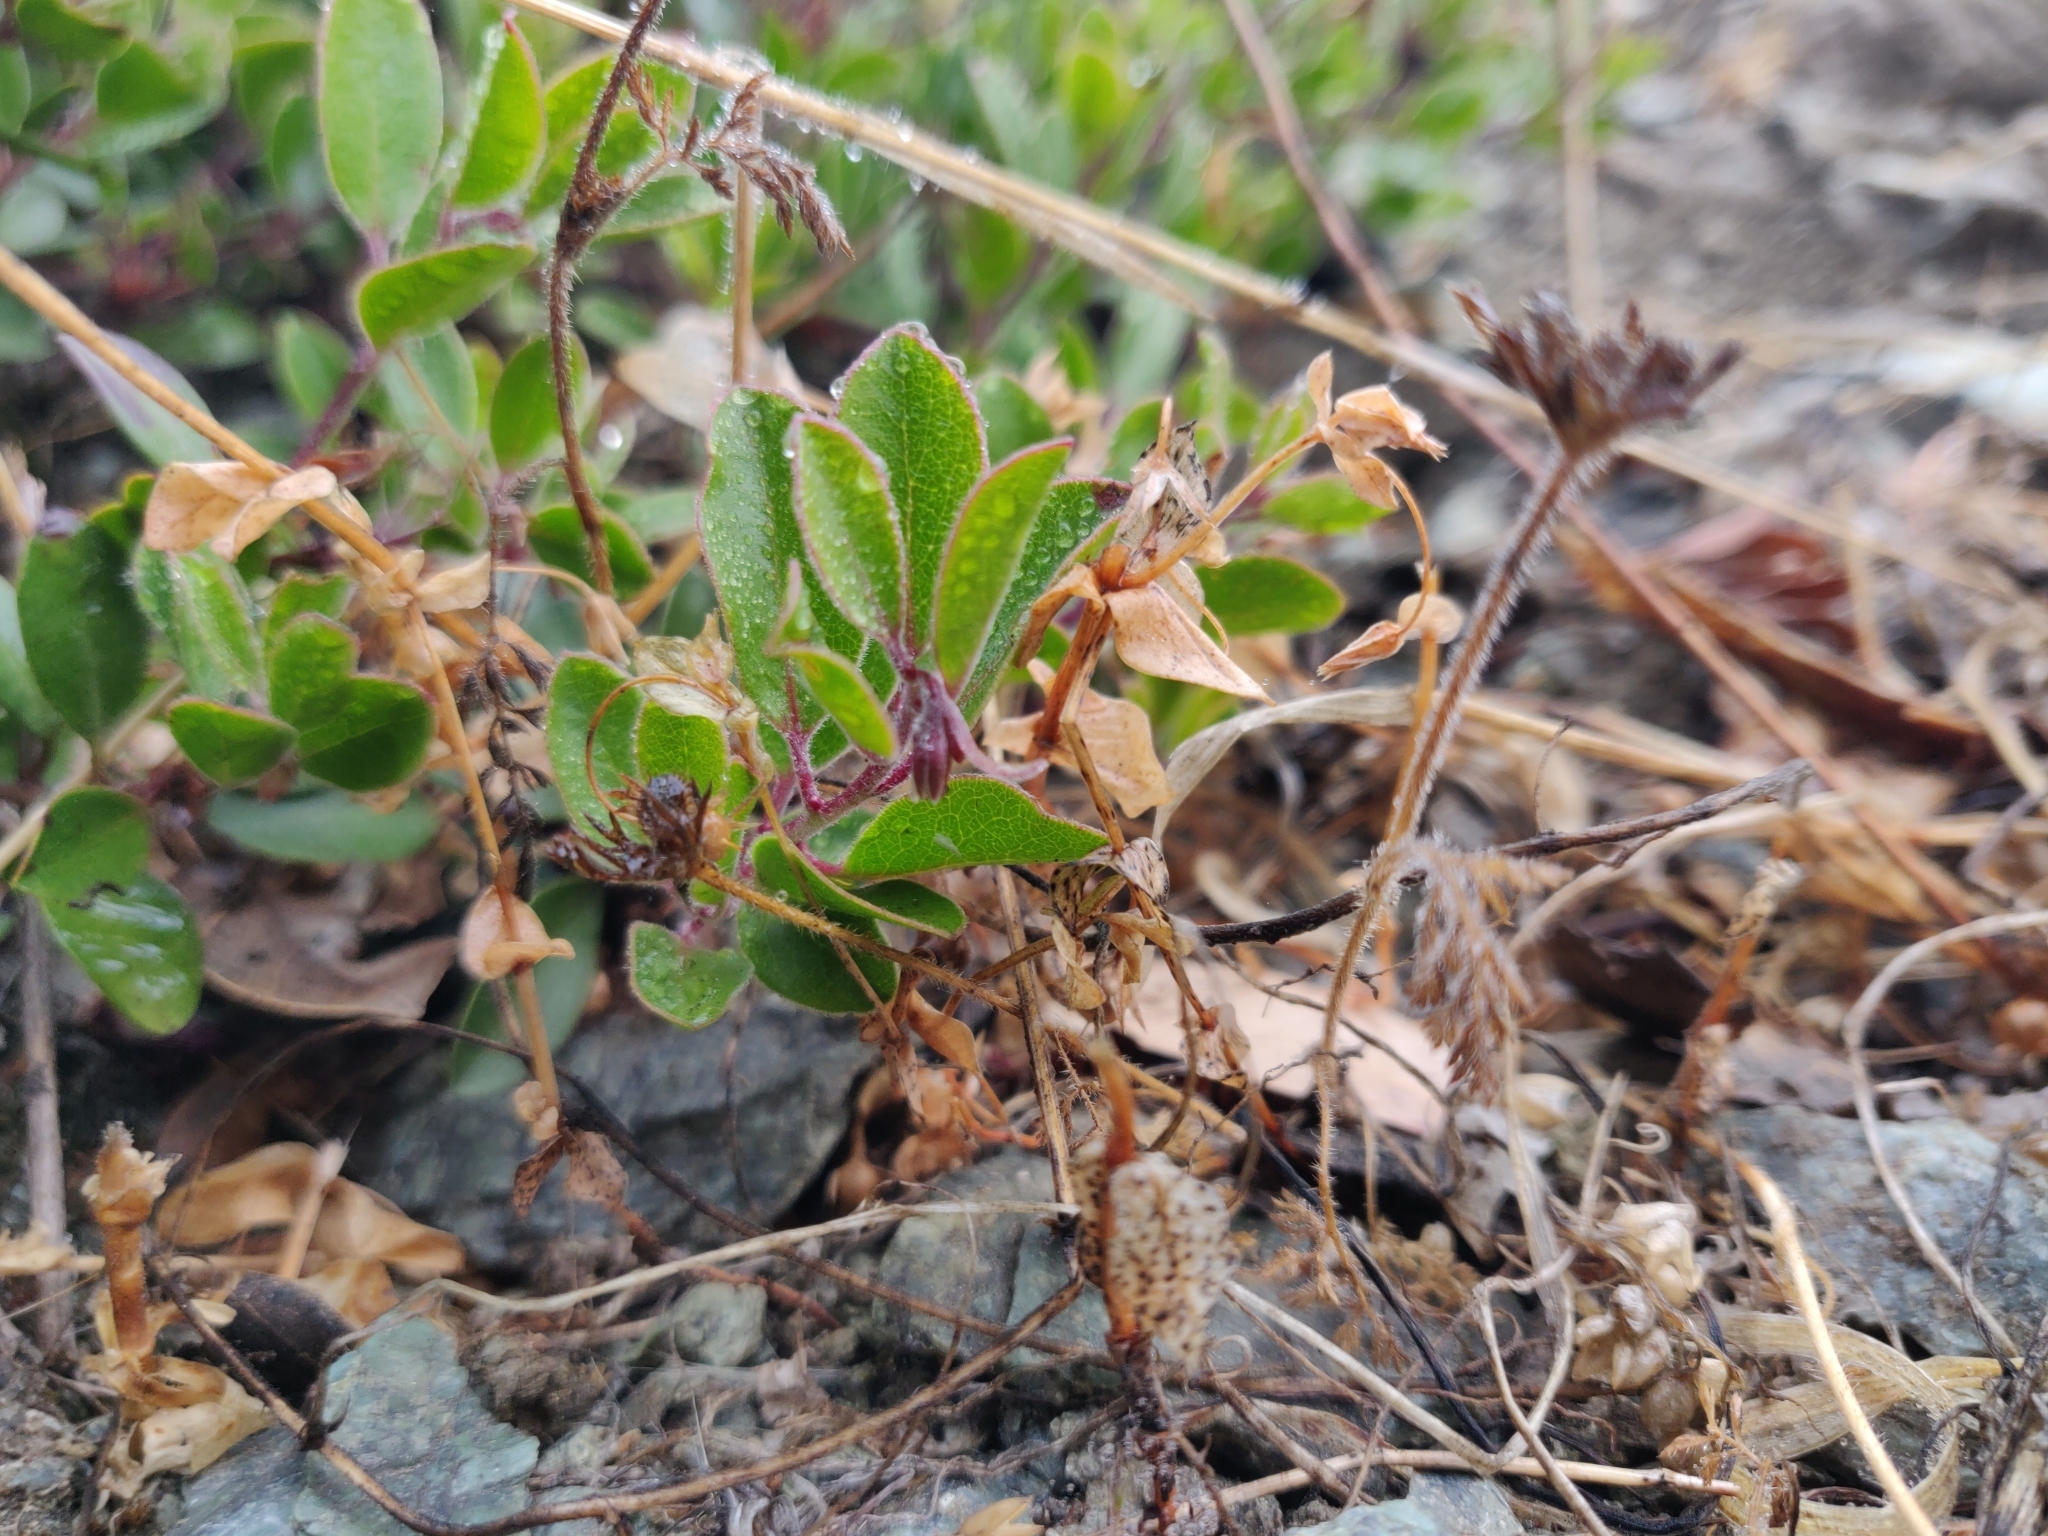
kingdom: Plantae
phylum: Tracheophyta
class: Magnoliopsida
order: Ericales
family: Ericaceae
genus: Arctostaphylos
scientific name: Arctostaphylos franciscana
